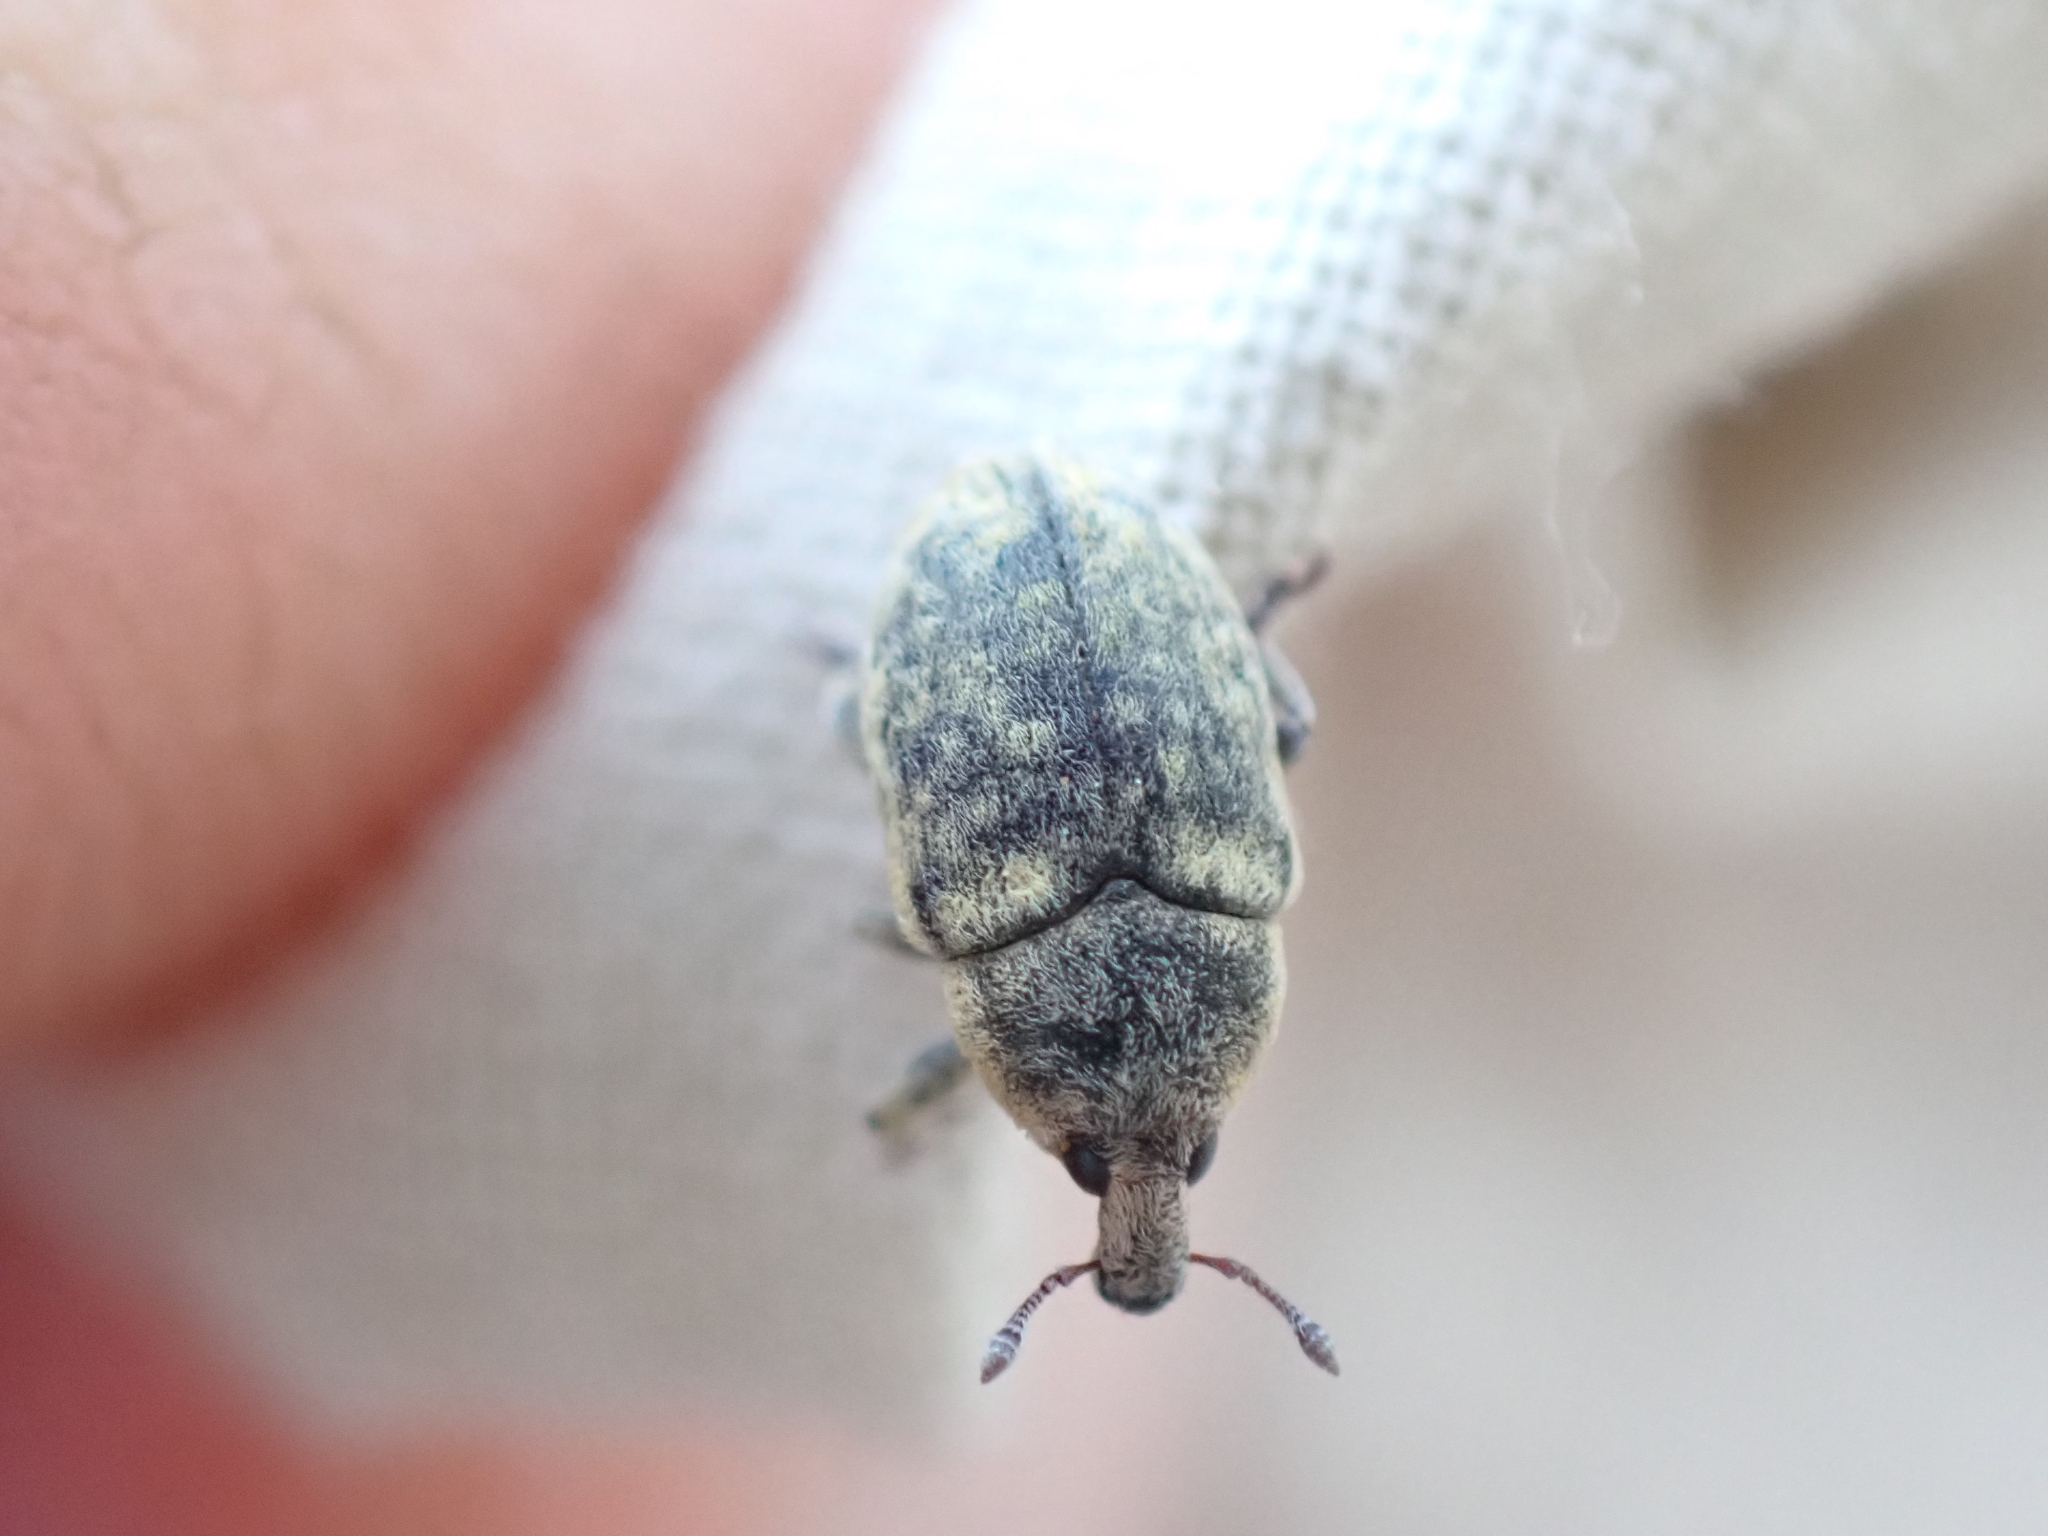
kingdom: Animalia
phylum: Arthropoda
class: Insecta
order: Coleoptera
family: Curculionidae
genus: Larinus
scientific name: Larinus minutus
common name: Weevil
